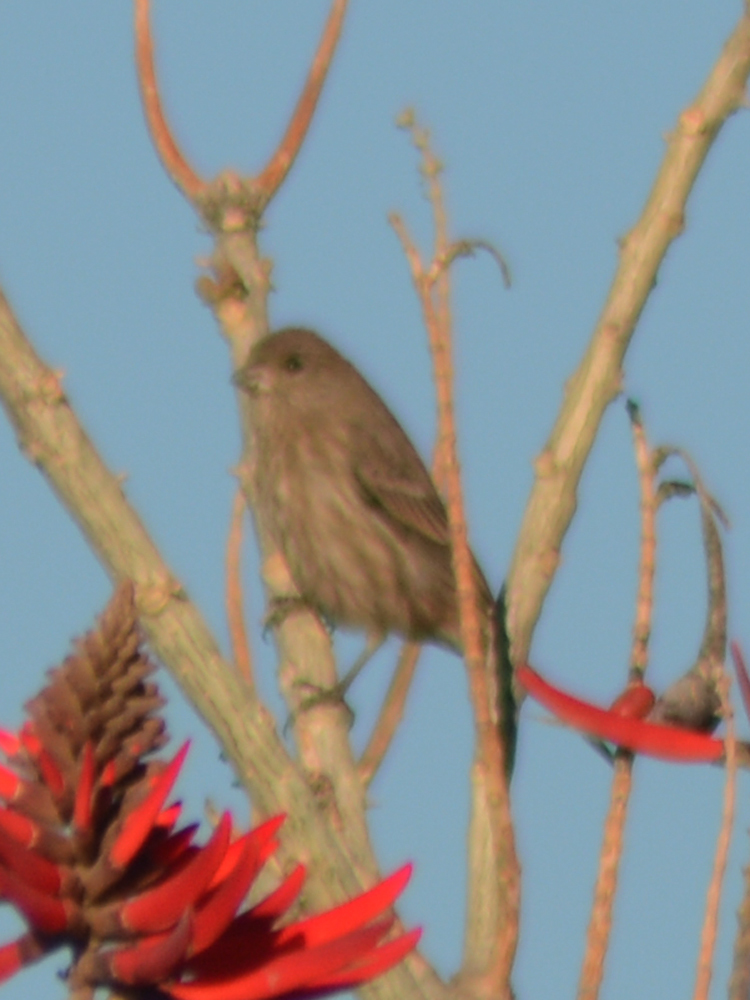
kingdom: Animalia
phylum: Chordata
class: Aves
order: Passeriformes
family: Fringillidae
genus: Haemorhous
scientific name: Haemorhous mexicanus
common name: House finch
